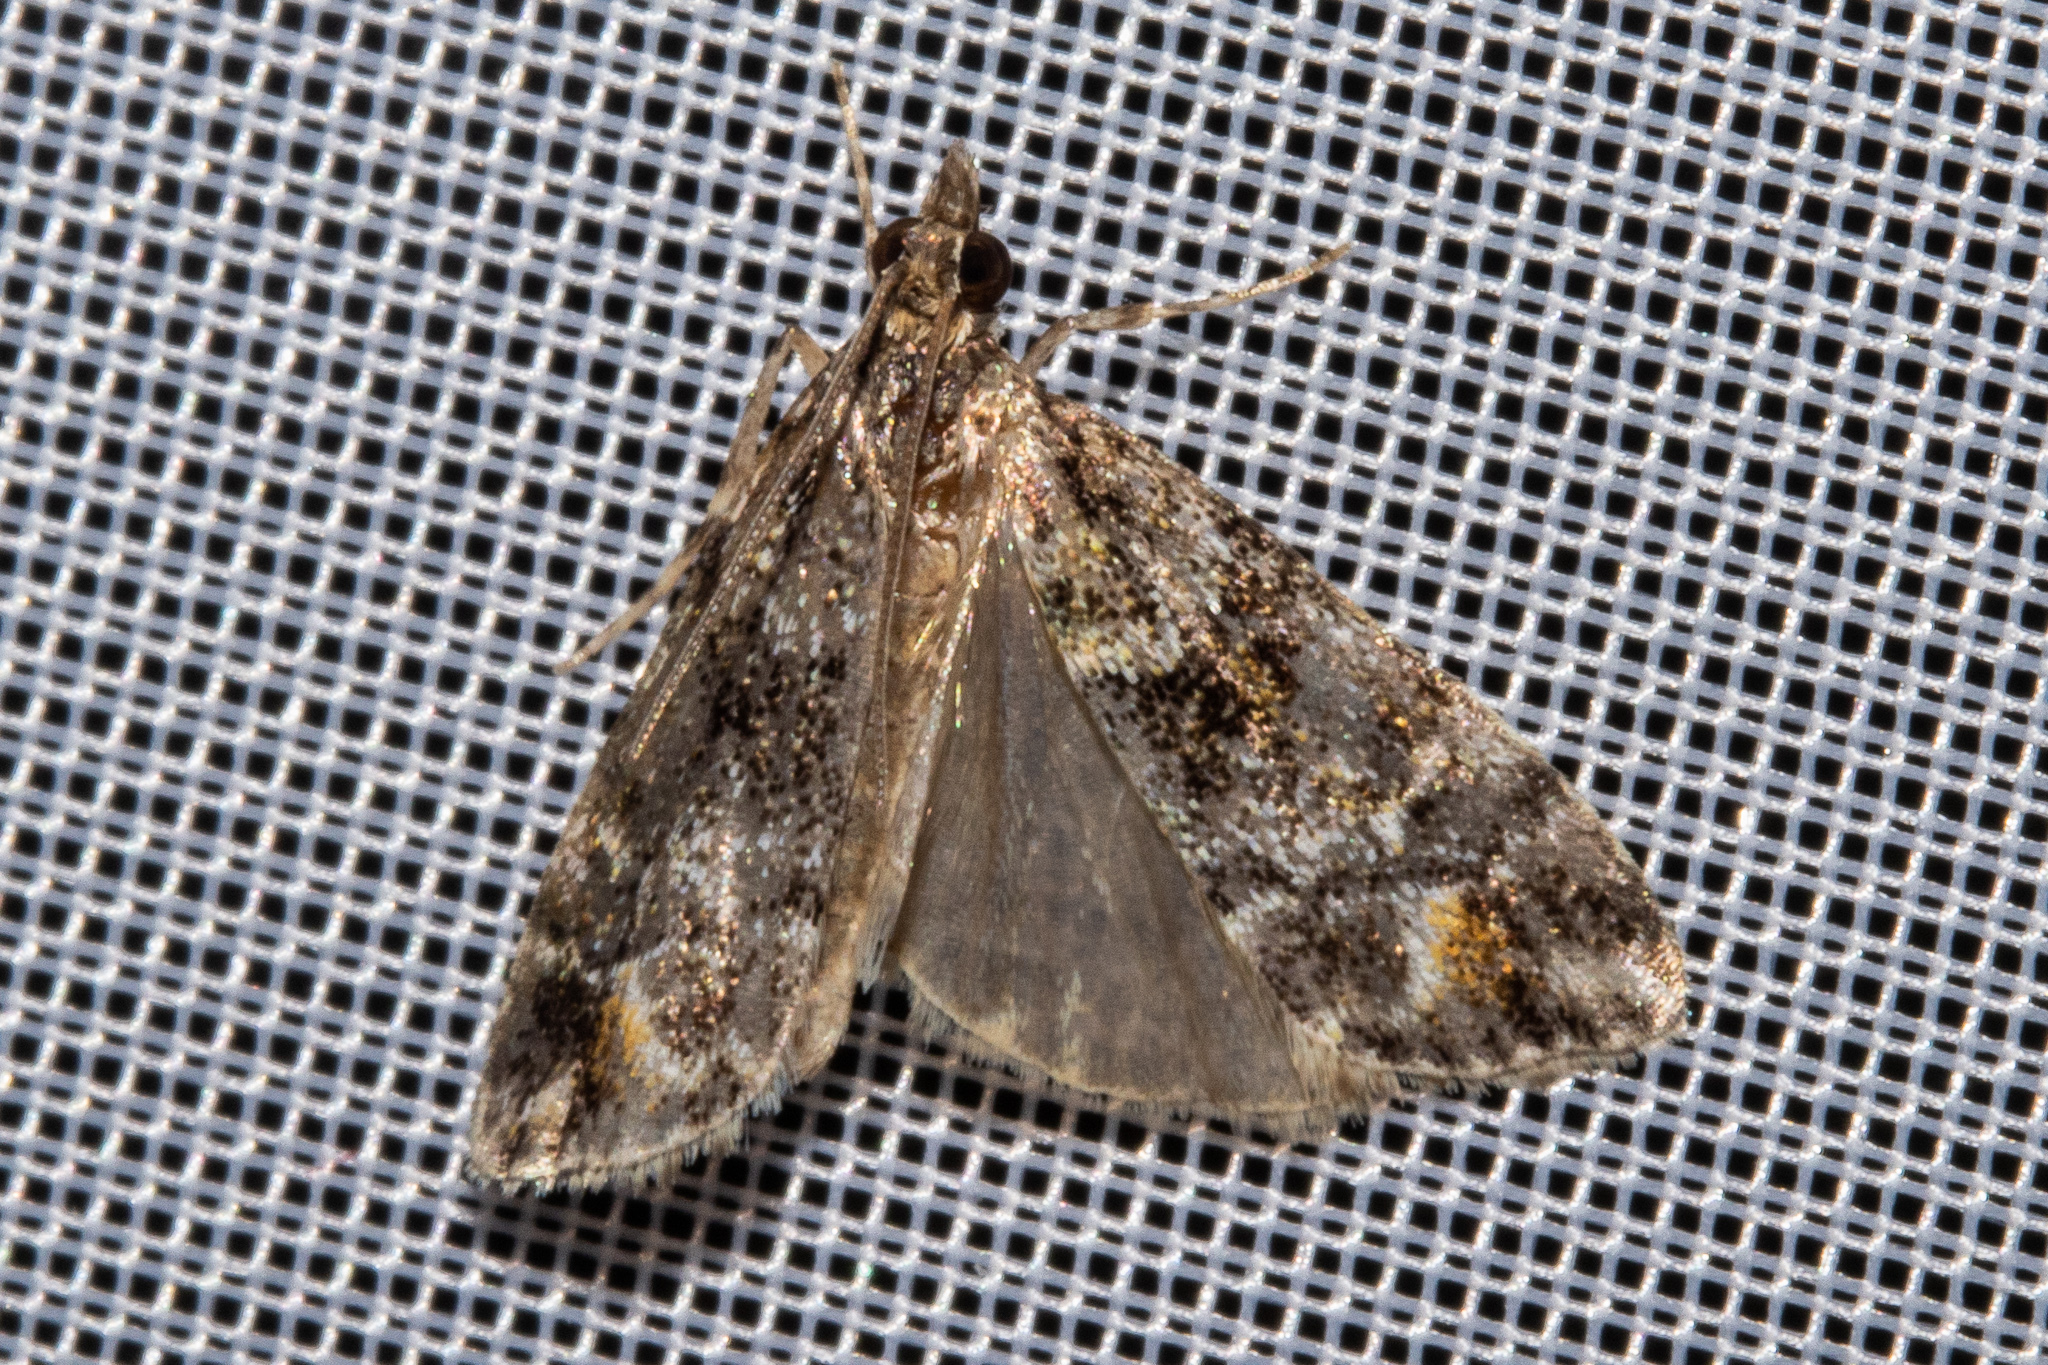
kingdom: Animalia
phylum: Arthropoda
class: Insecta
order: Lepidoptera
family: Crambidae
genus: Eudonia
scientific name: Eudonia minualis
